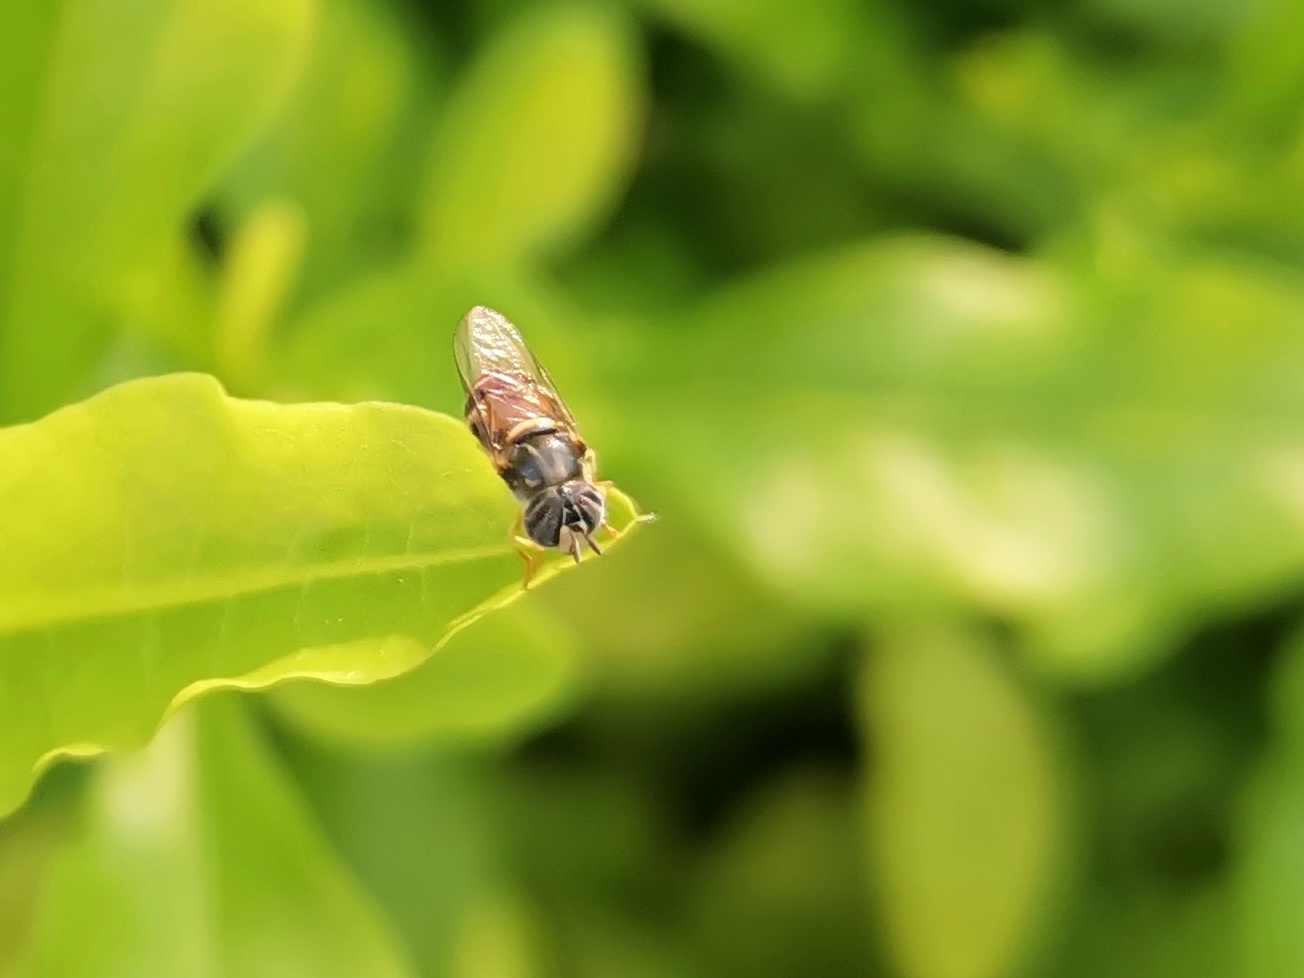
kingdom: Animalia
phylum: Arthropoda
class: Insecta
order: Diptera
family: Syrphidae
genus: Paragus
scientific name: Paragus serratus
